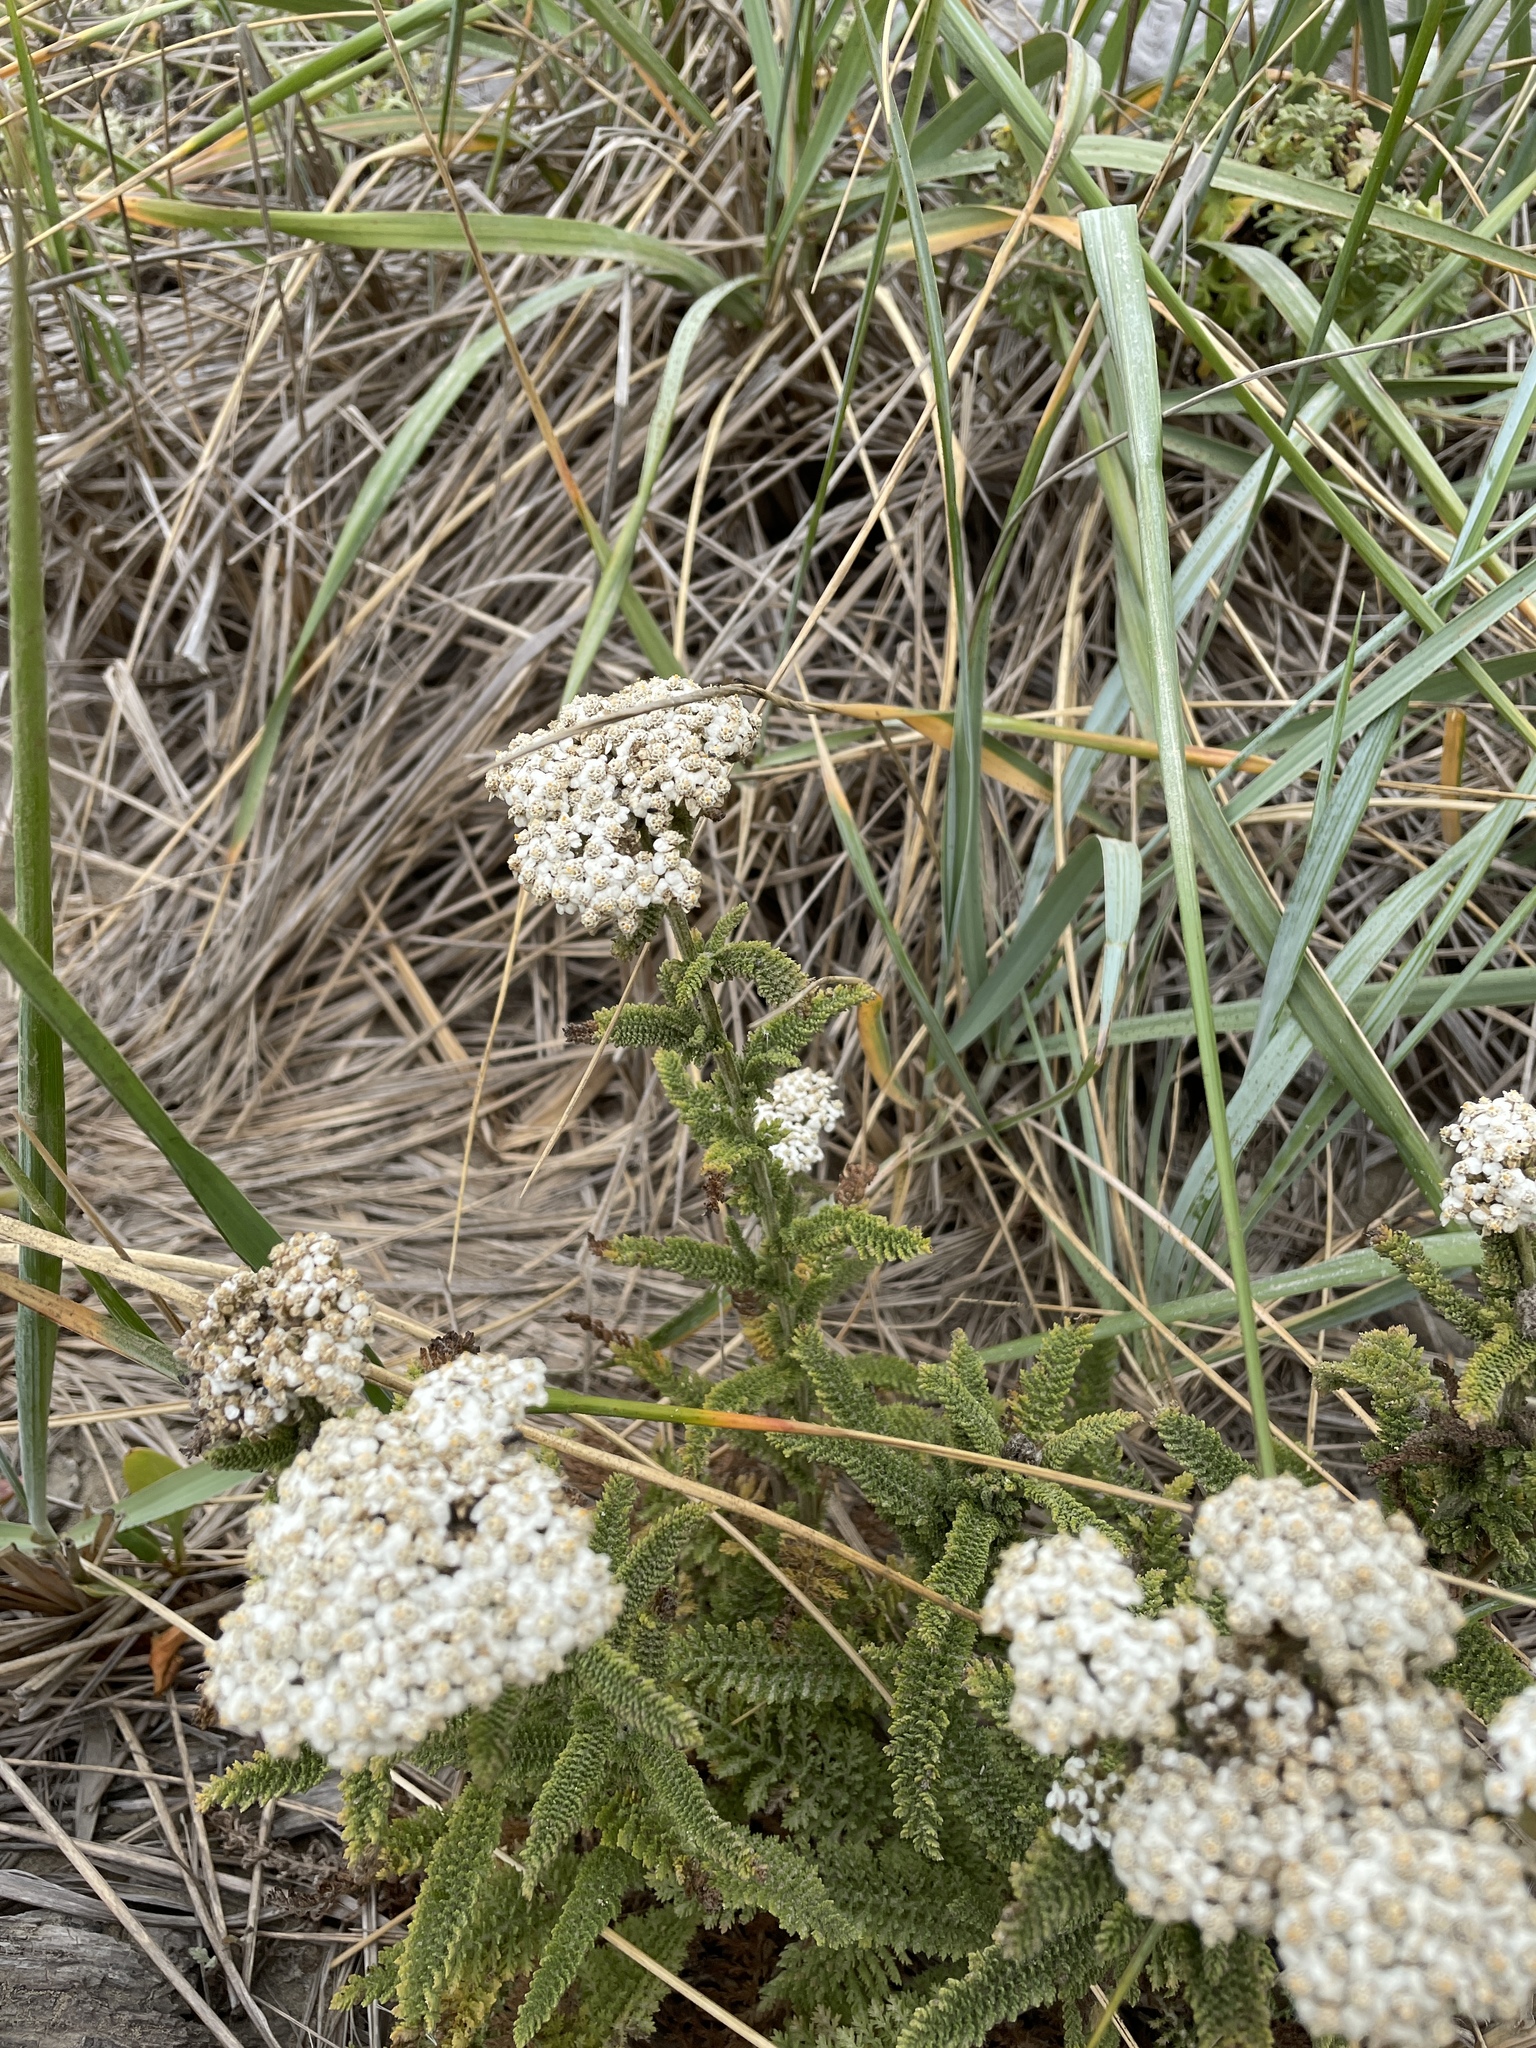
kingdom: Plantae
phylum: Tracheophyta
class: Magnoliopsida
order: Asterales
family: Asteraceae
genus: Achillea
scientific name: Achillea millefolium
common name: Yarrow
